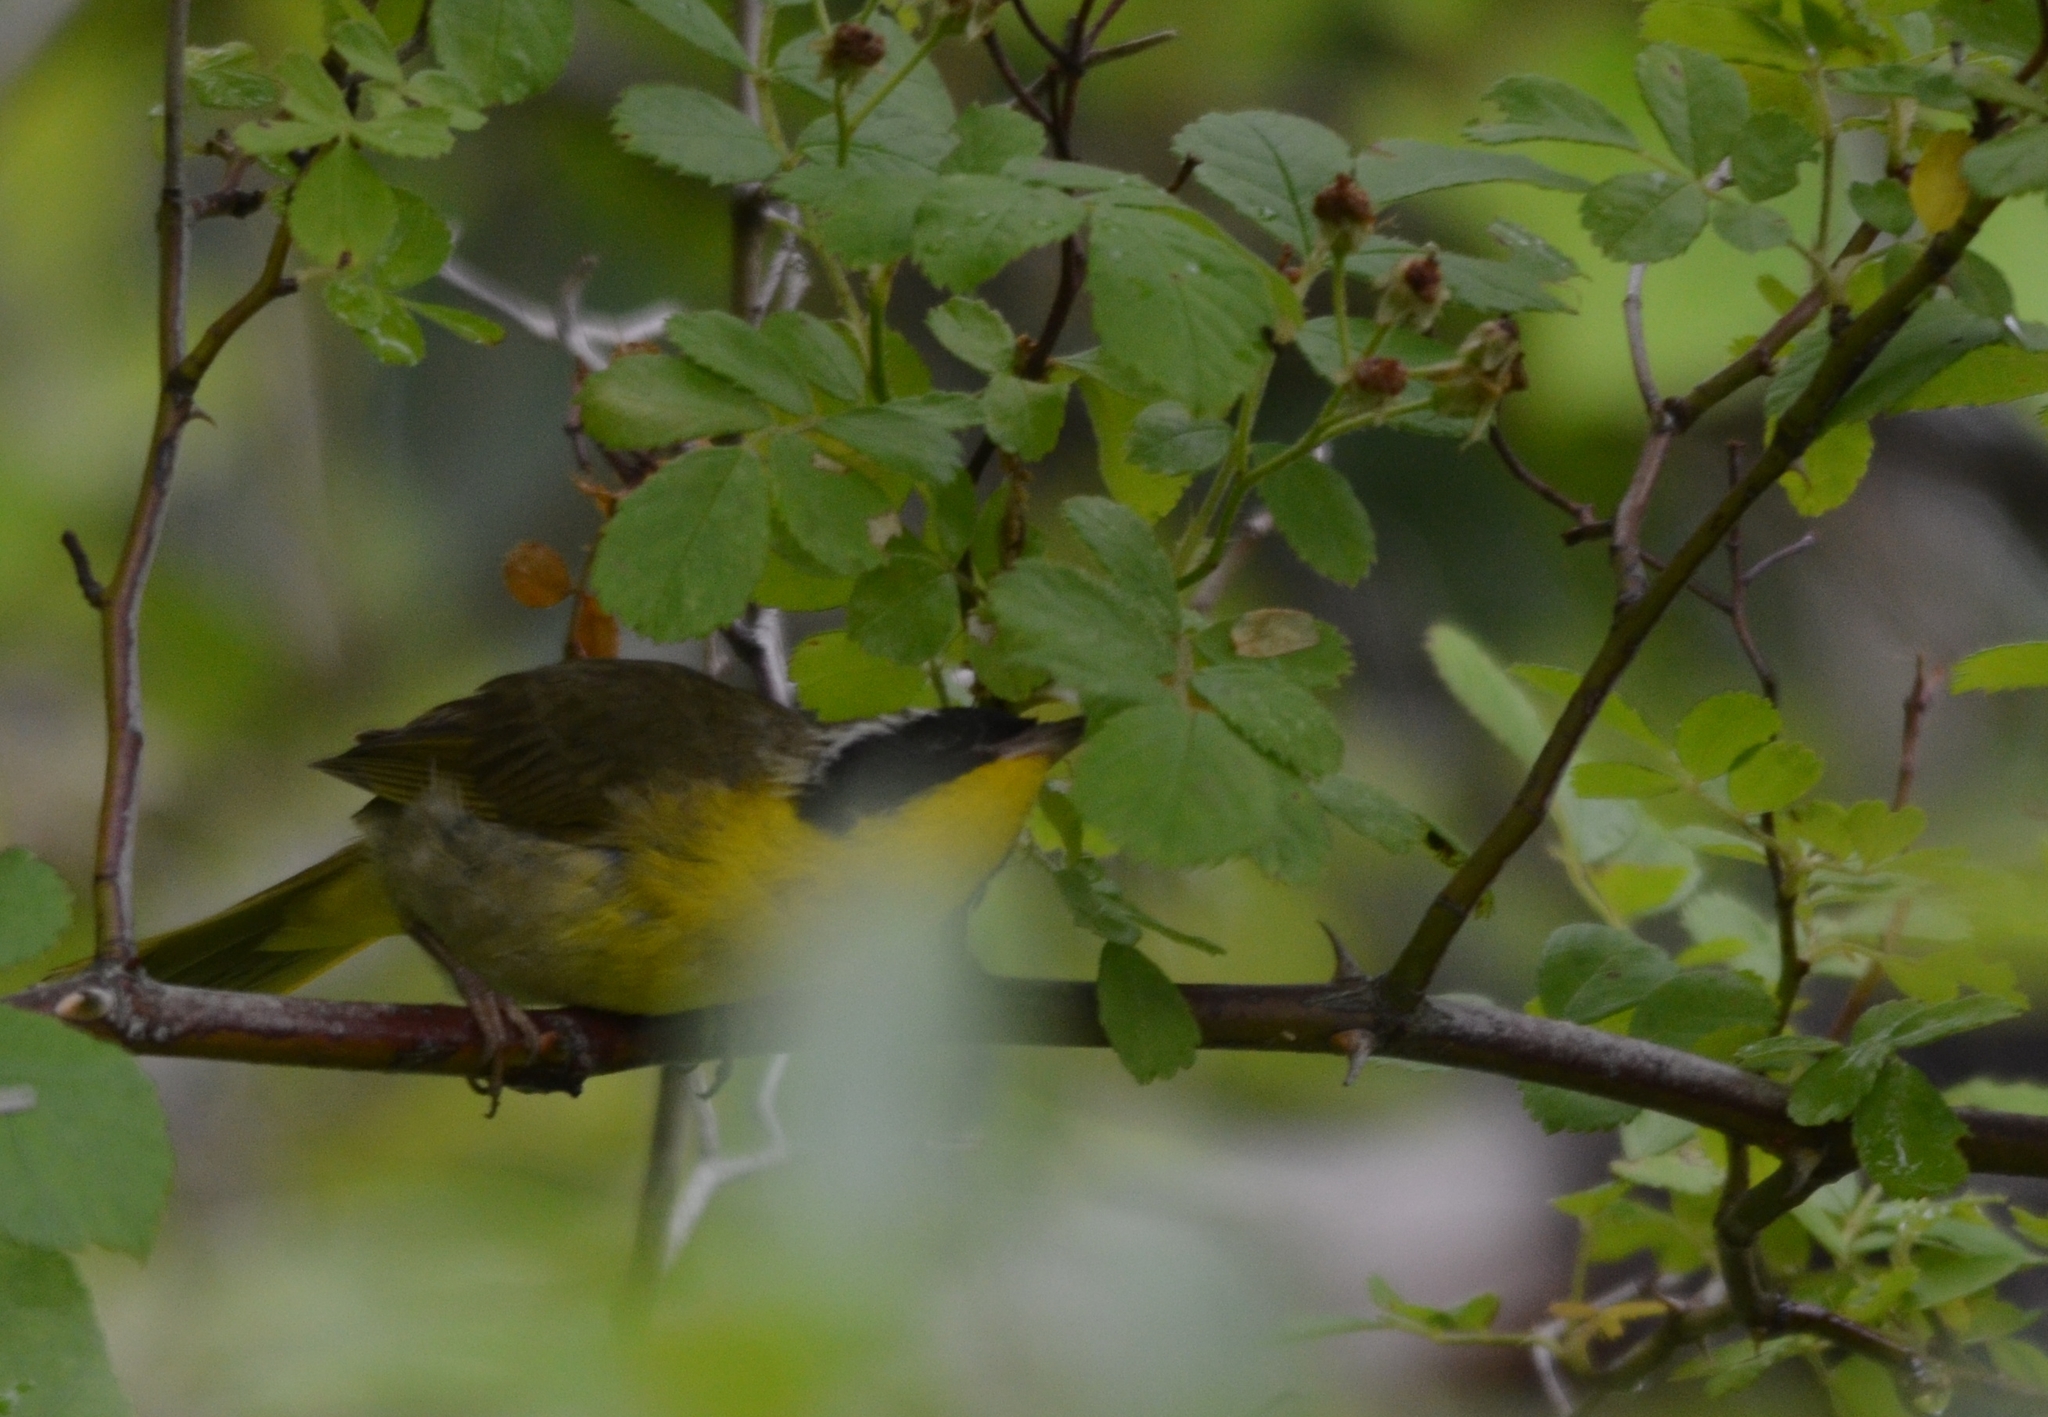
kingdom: Animalia
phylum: Chordata
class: Aves
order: Passeriformes
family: Parulidae
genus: Geothlypis
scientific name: Geothlypis trichas
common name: Common yellowthroat
